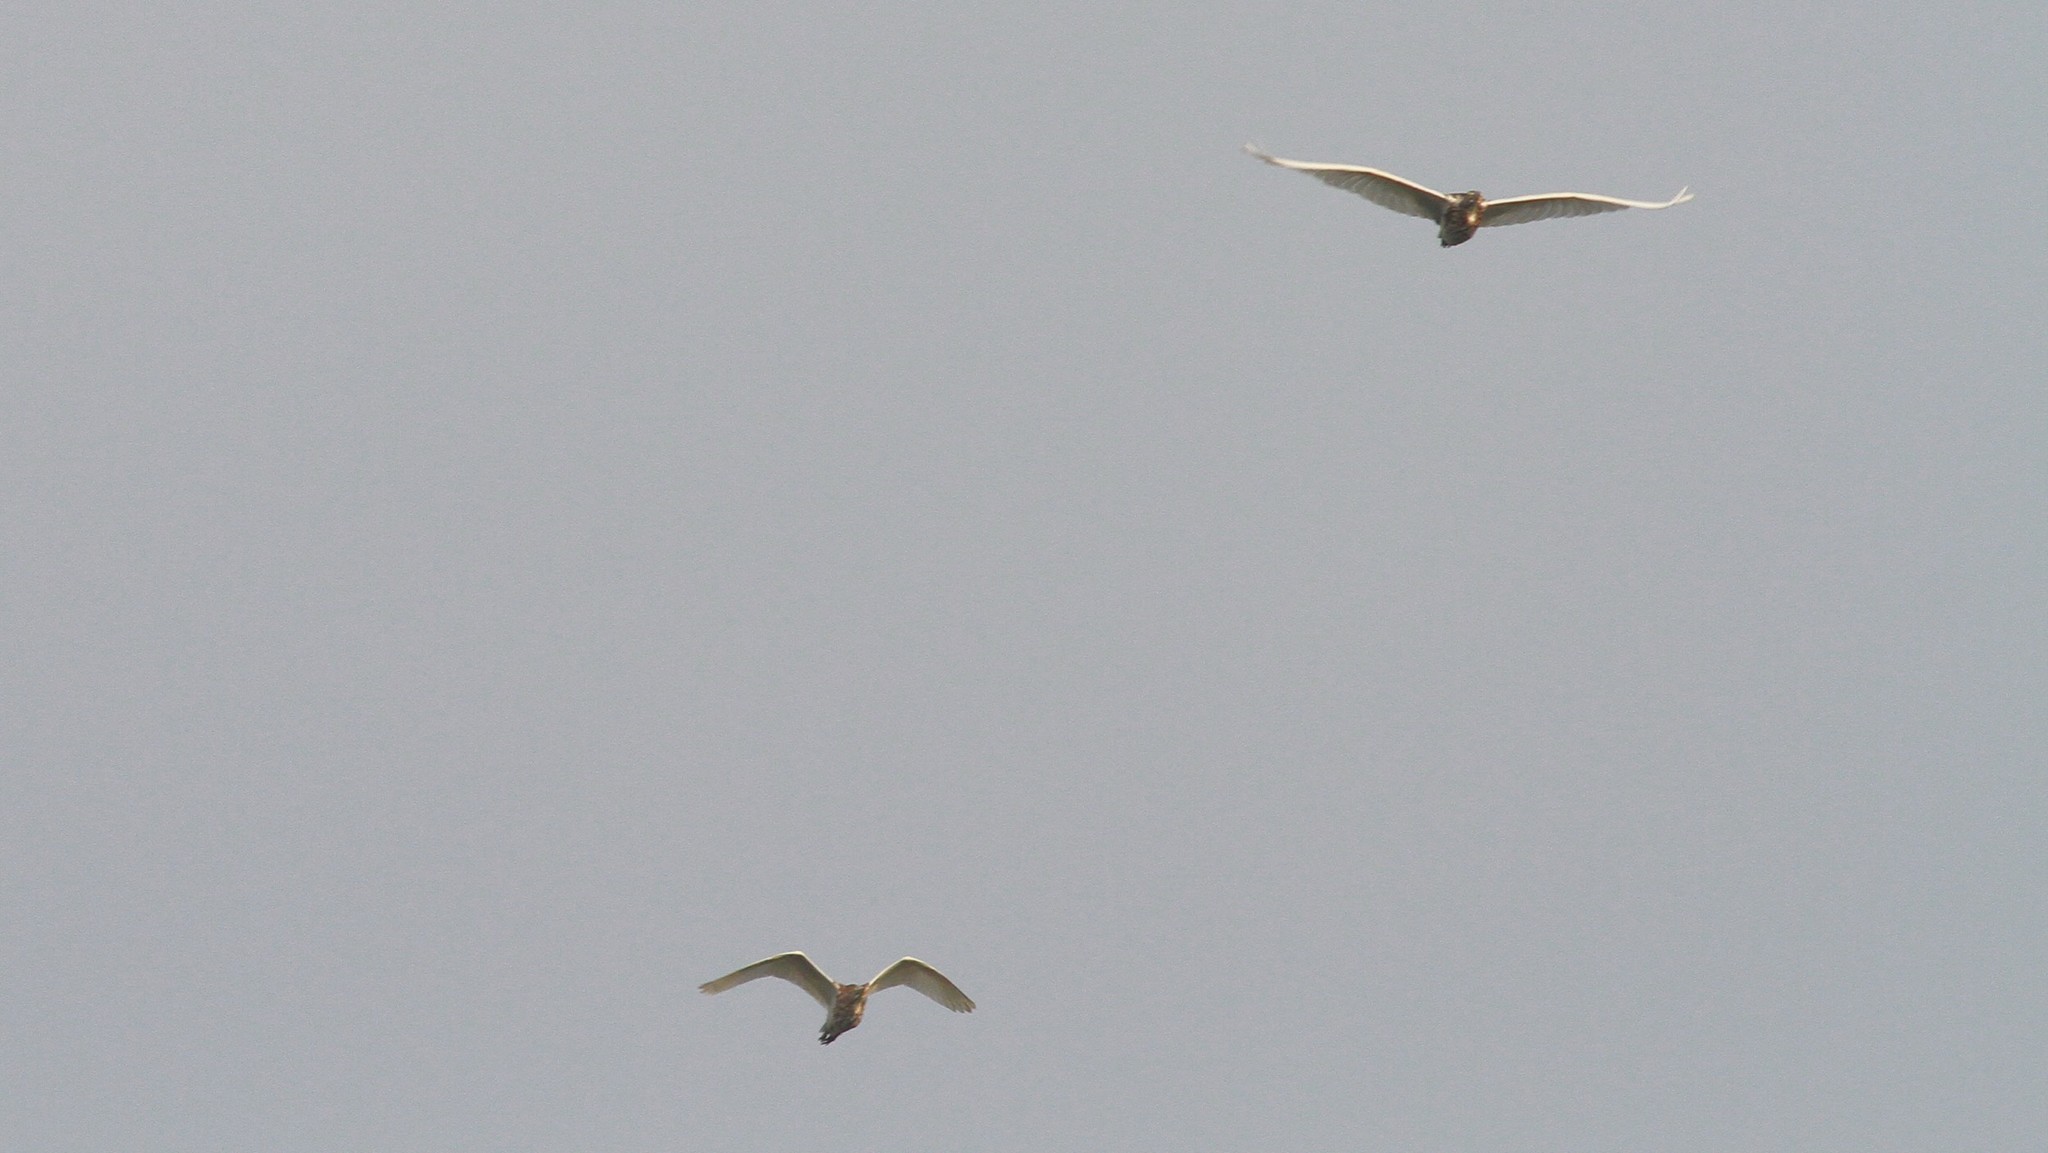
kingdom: Animalia
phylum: Chordata
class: Aves
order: Pelecaniformes
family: Ardeidae
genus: Ardeola
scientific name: Ardeola grayii
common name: Indian pond heron
